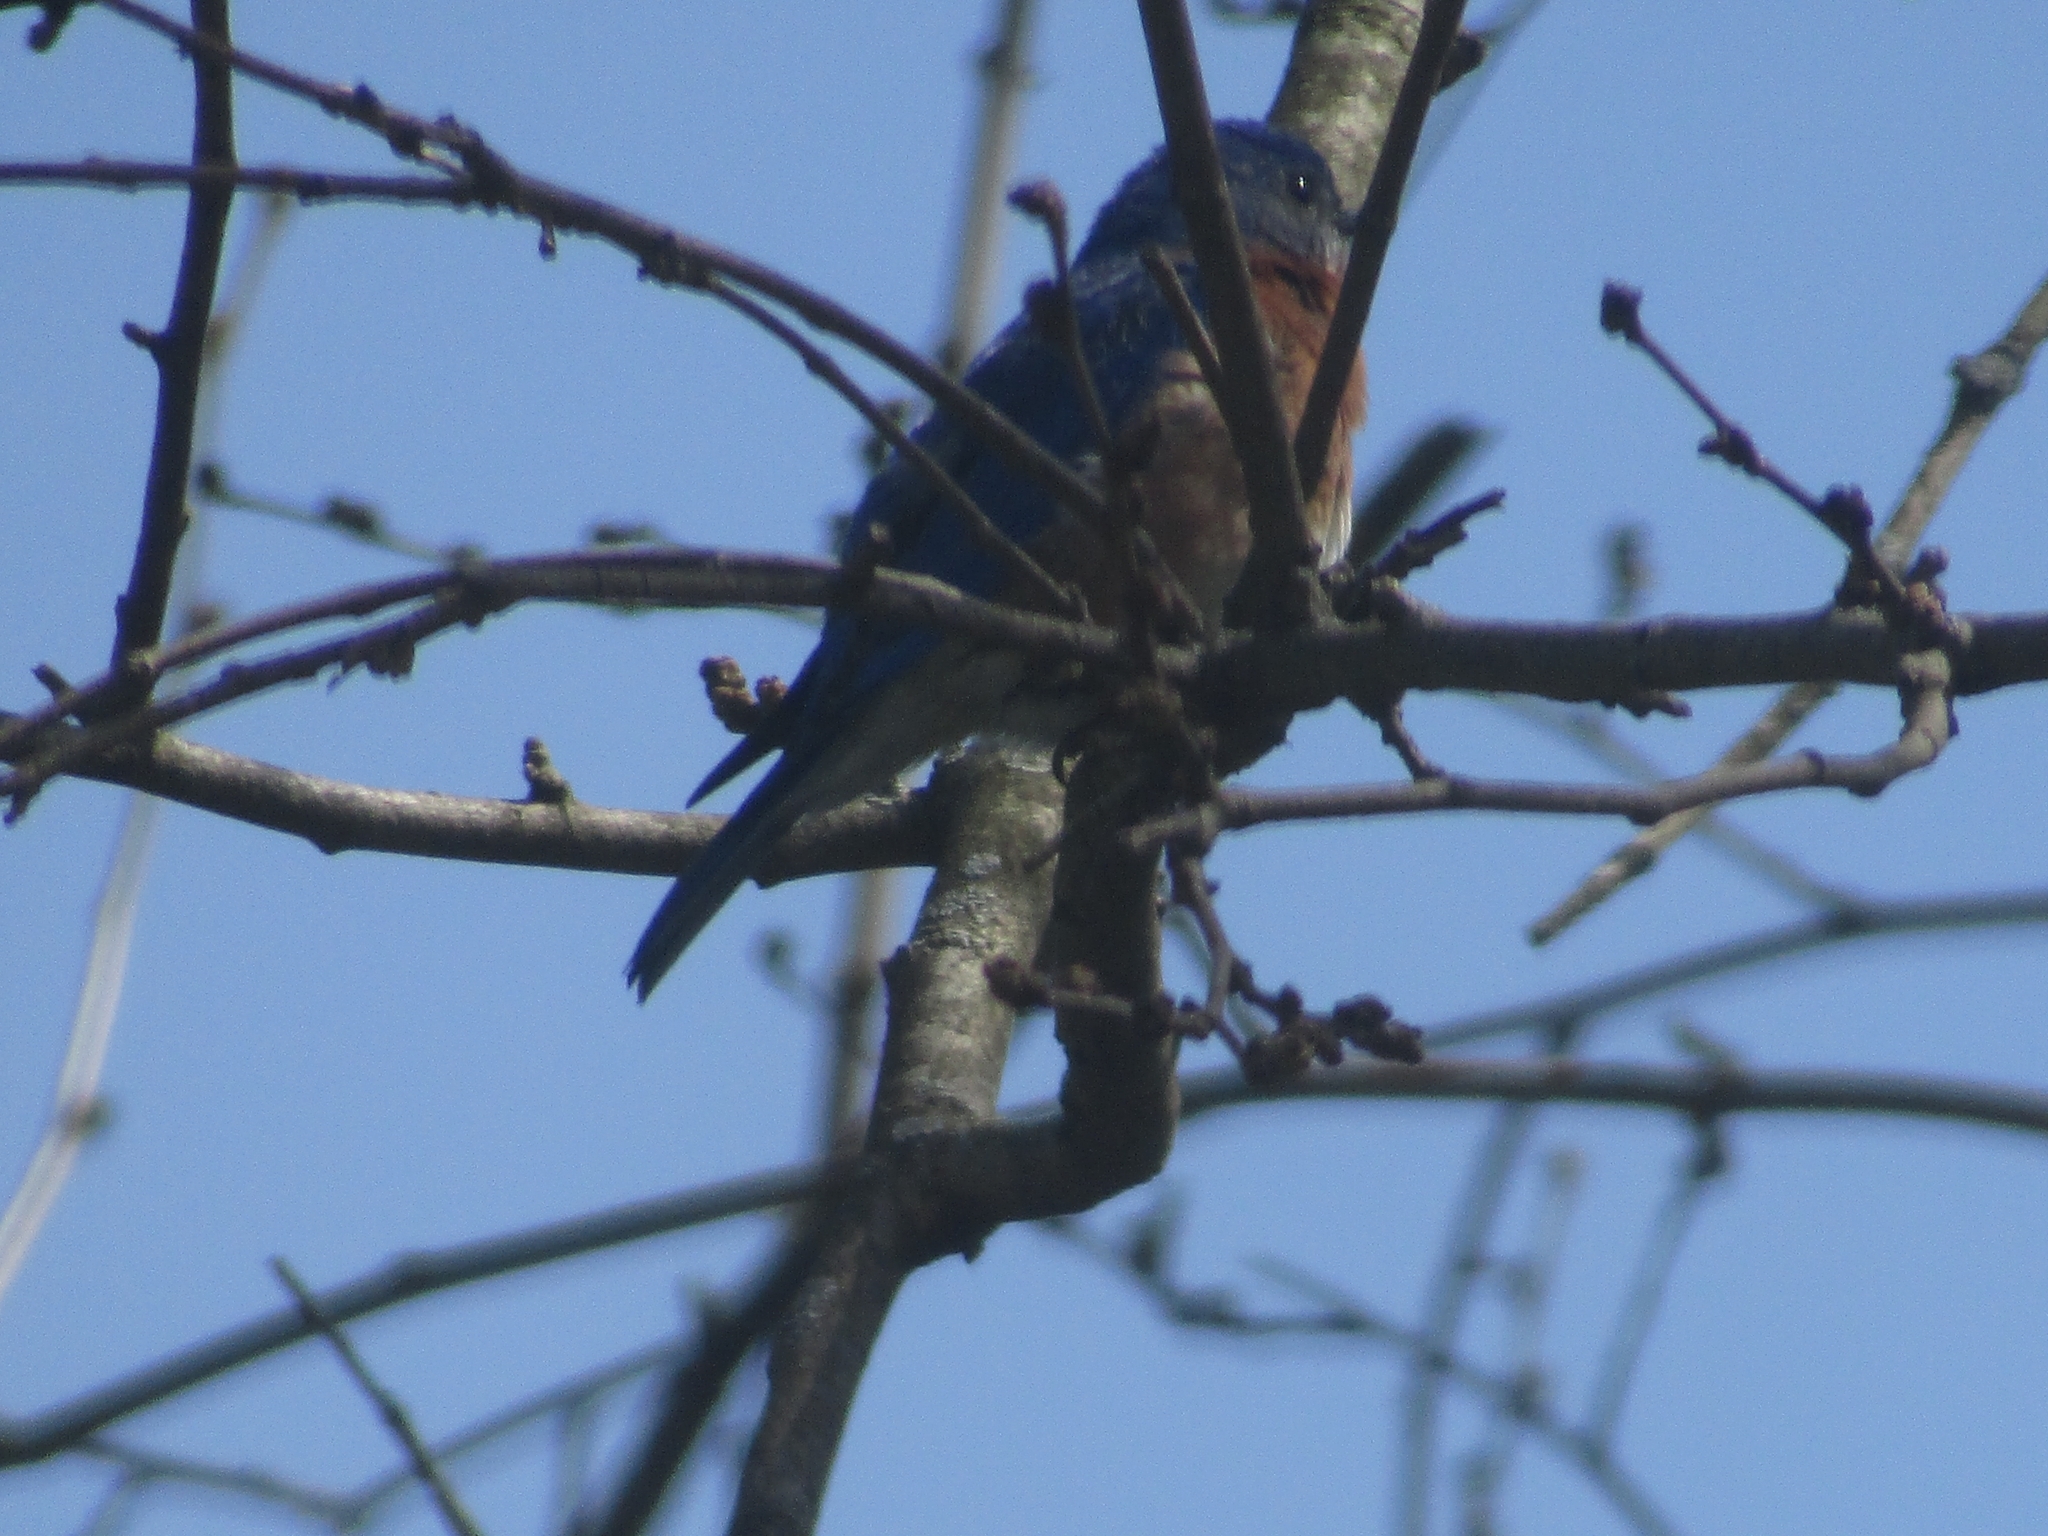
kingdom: Animalia
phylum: Chordata
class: Aves
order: Passeriformes
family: Turdidae
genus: Sialia
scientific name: Sialia sialis
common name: Eastern bluebird
